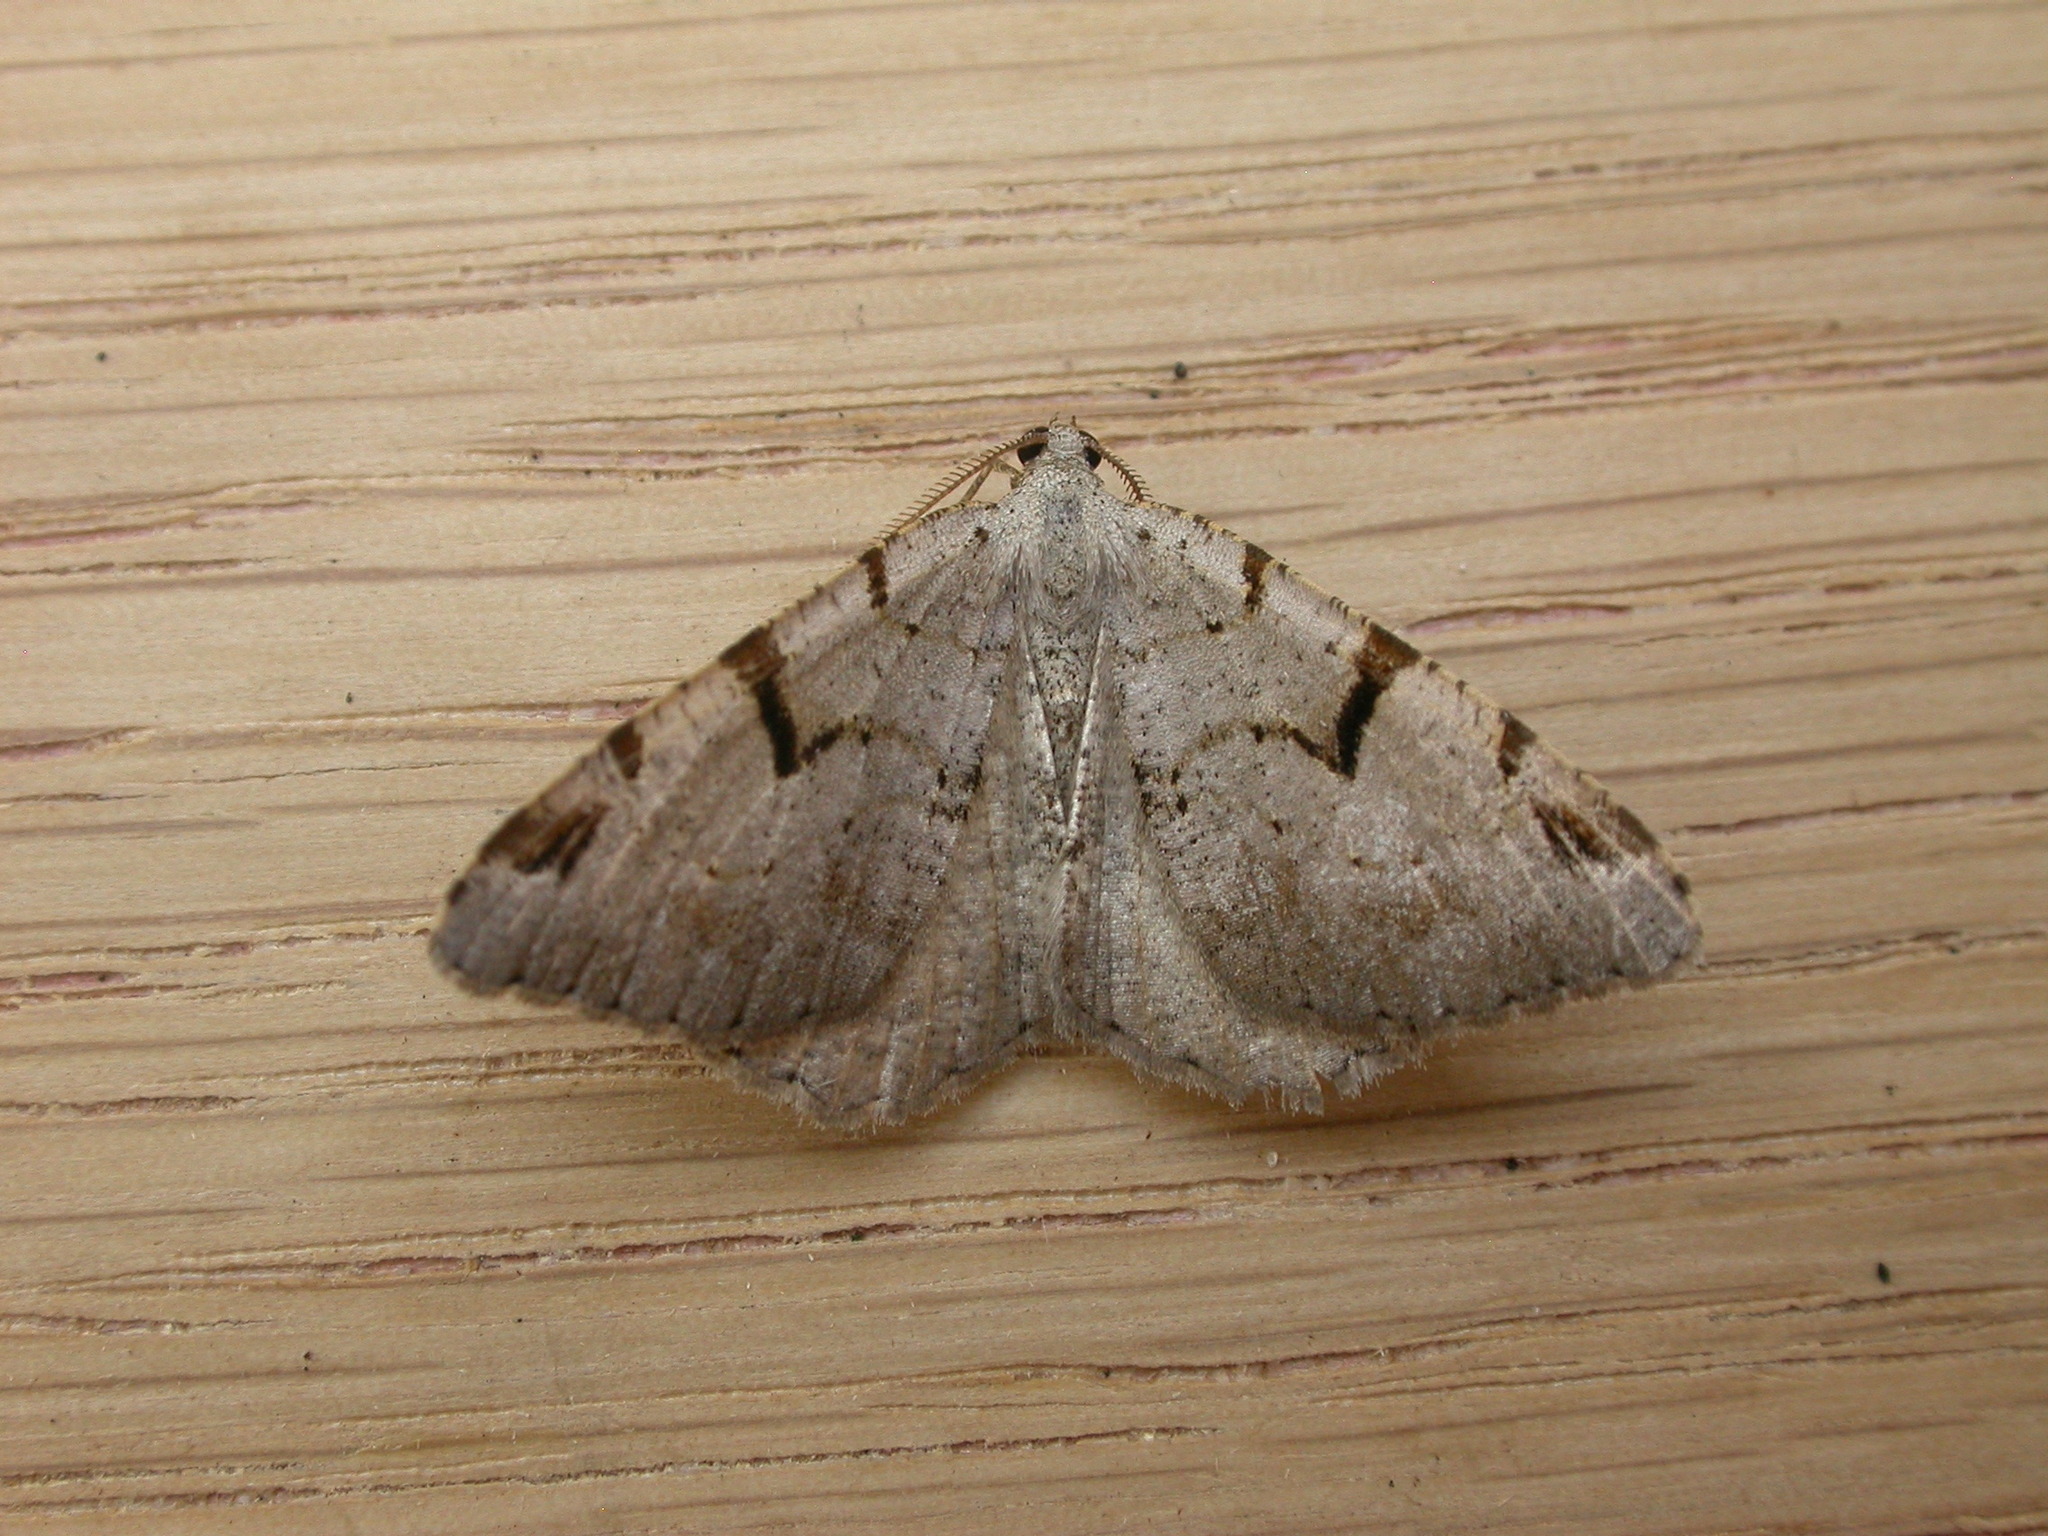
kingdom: Animalia
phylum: Arthropoda
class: Insecta
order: Lepidoptera
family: Geometridae
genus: Macaria
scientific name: Macaria wauaria
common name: V-moth
